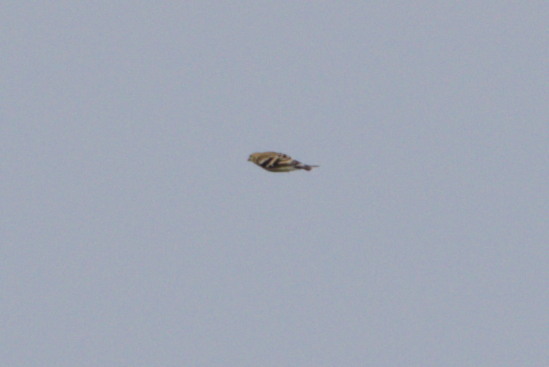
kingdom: Animalia
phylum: Chordata
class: Aves
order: Passeriformes
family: Fringillidae
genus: Spinus
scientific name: Spinus tristis
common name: American goldfinch
